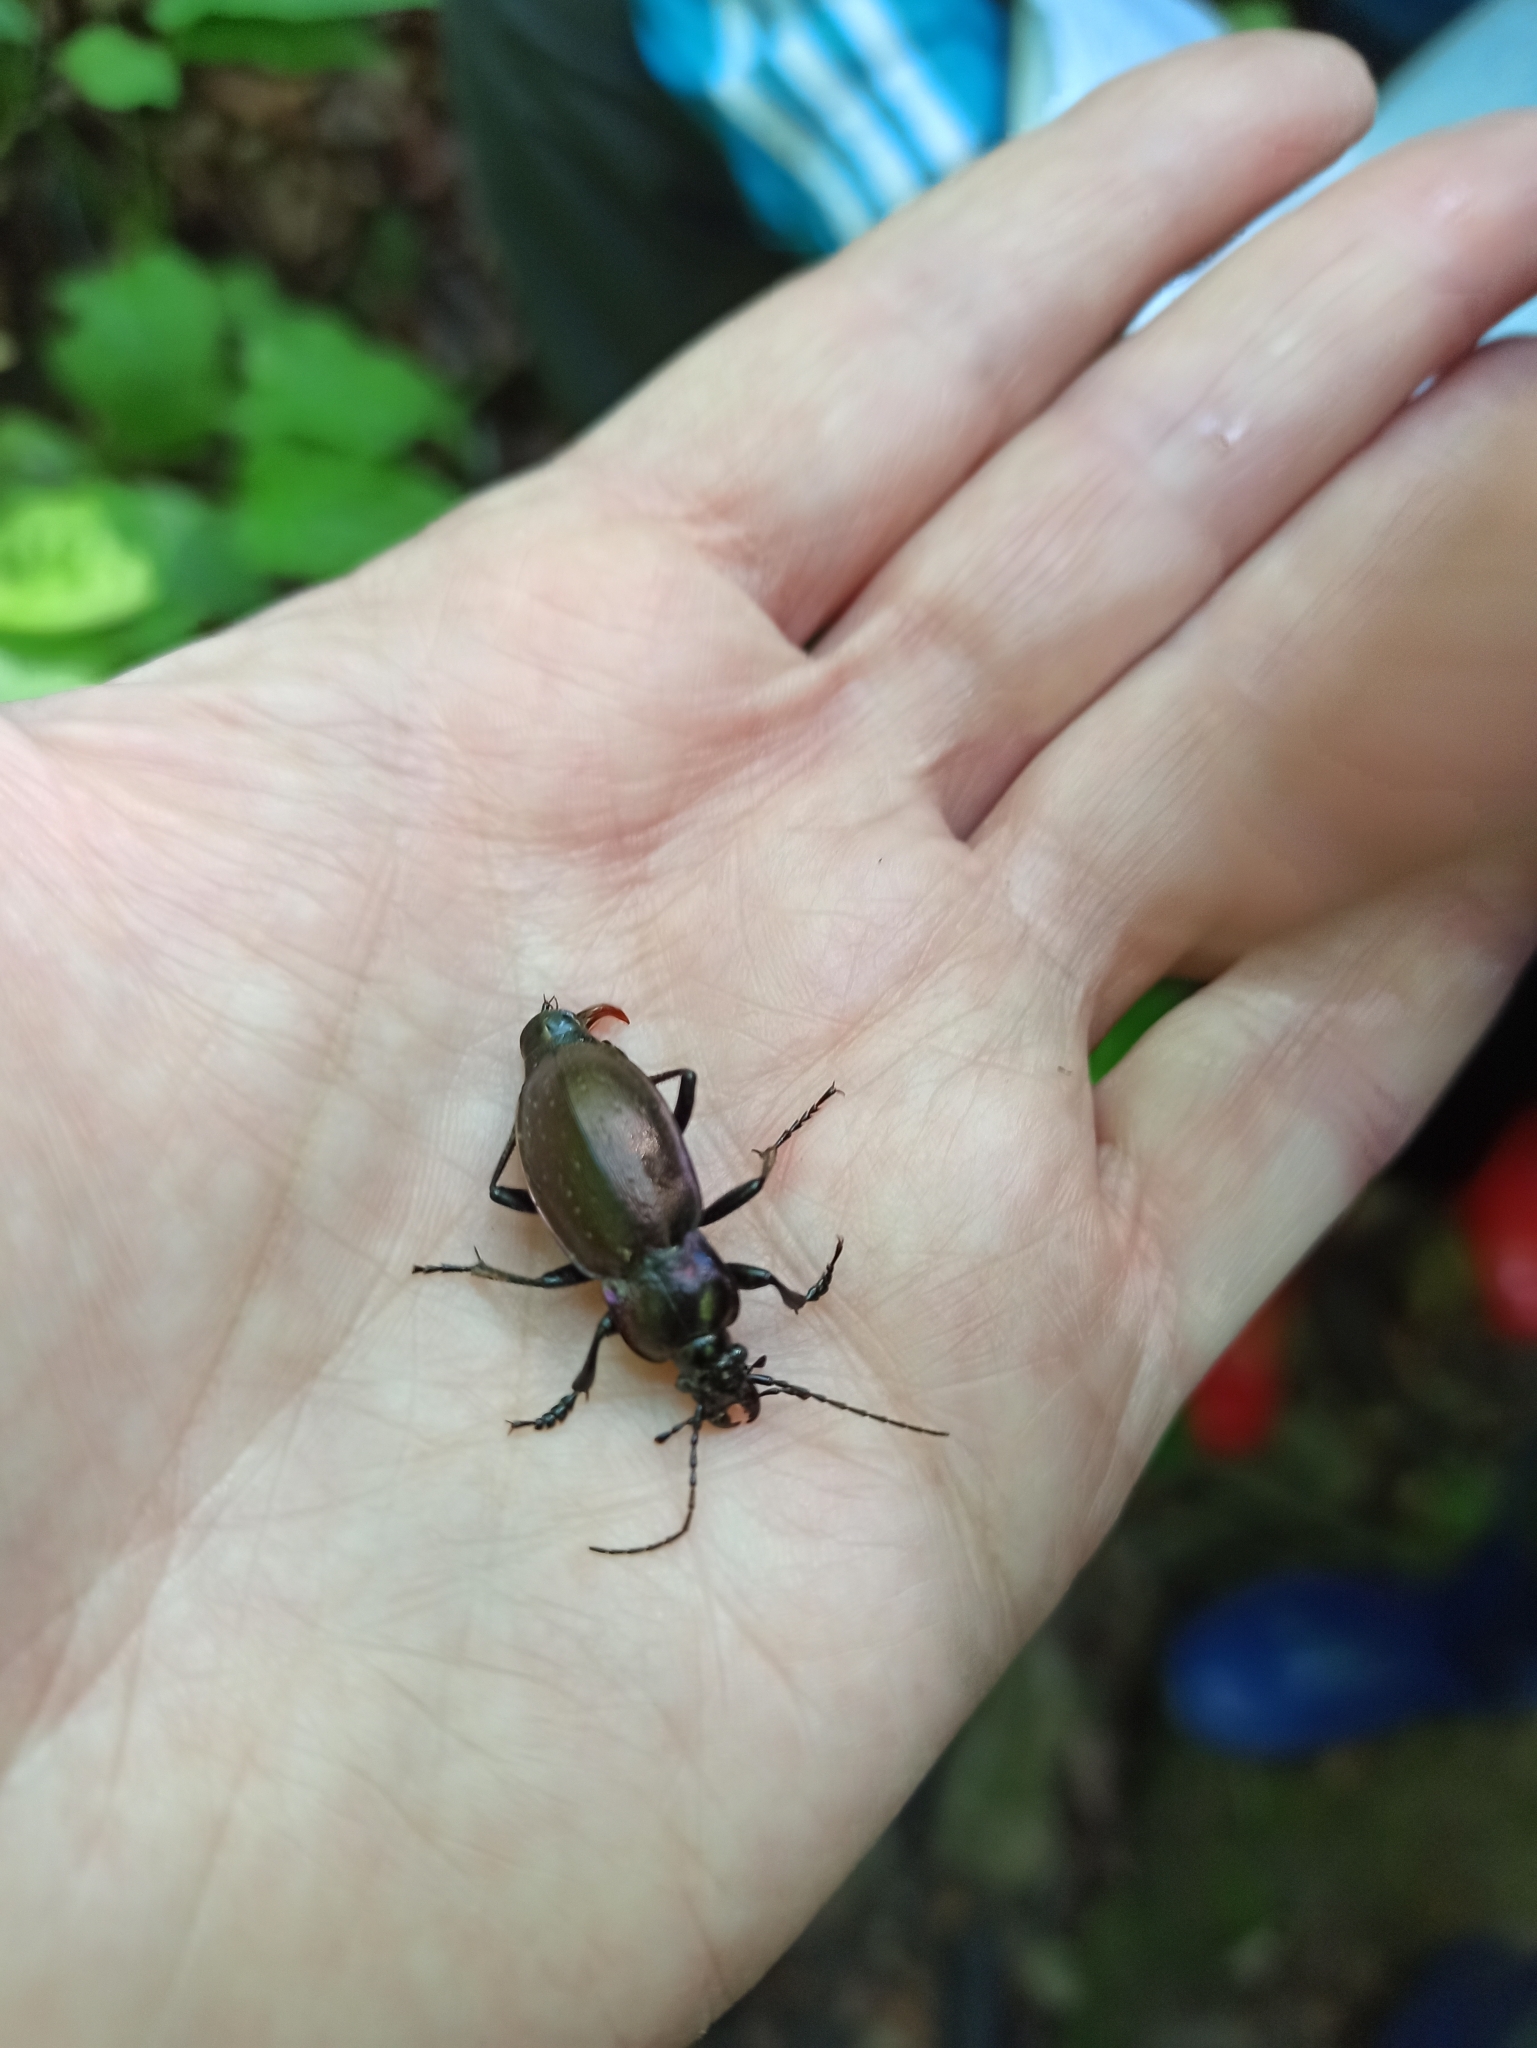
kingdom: Animalia
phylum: Arthropoda
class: Insecta
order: Coleoptera
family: Carabidae
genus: Carabus
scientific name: Carabus nemoralis
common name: European ground beetle
